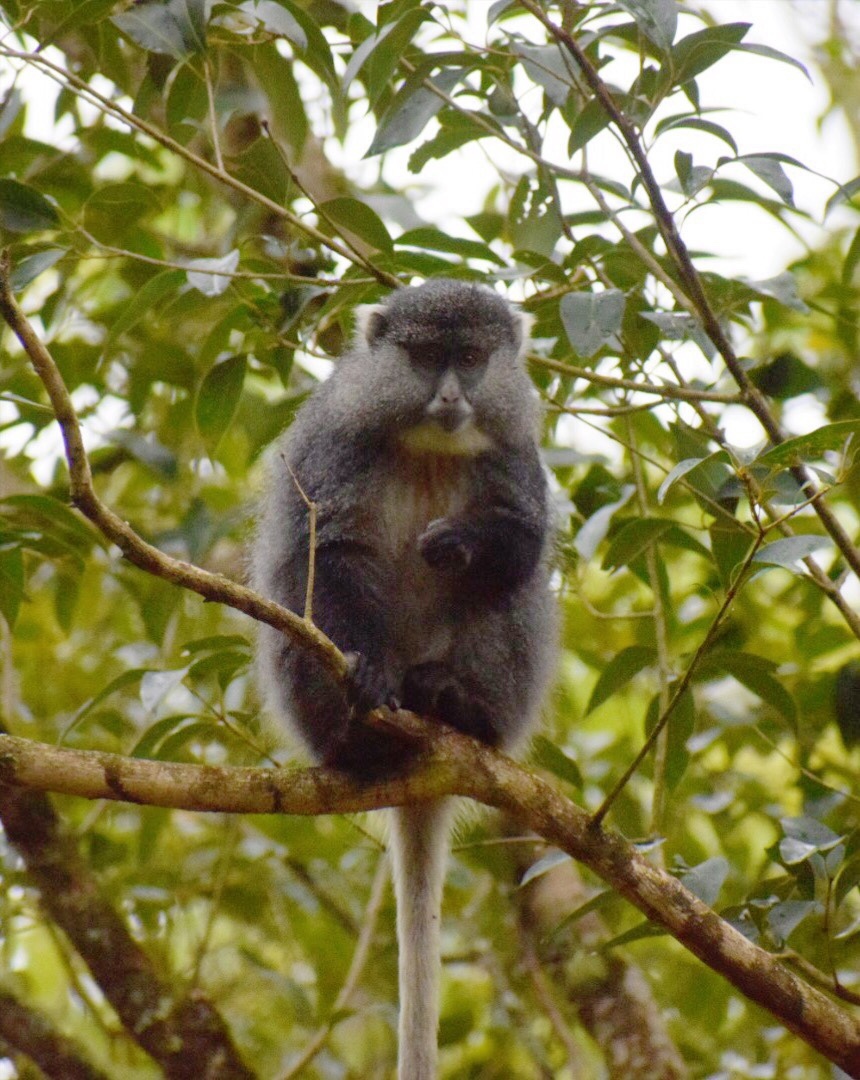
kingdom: Animalia
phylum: Chordata
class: Mammalia
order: Primates
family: Cercopithecidae
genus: Cercopithecus
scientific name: Cercopithecus mitis
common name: Blue monkey
